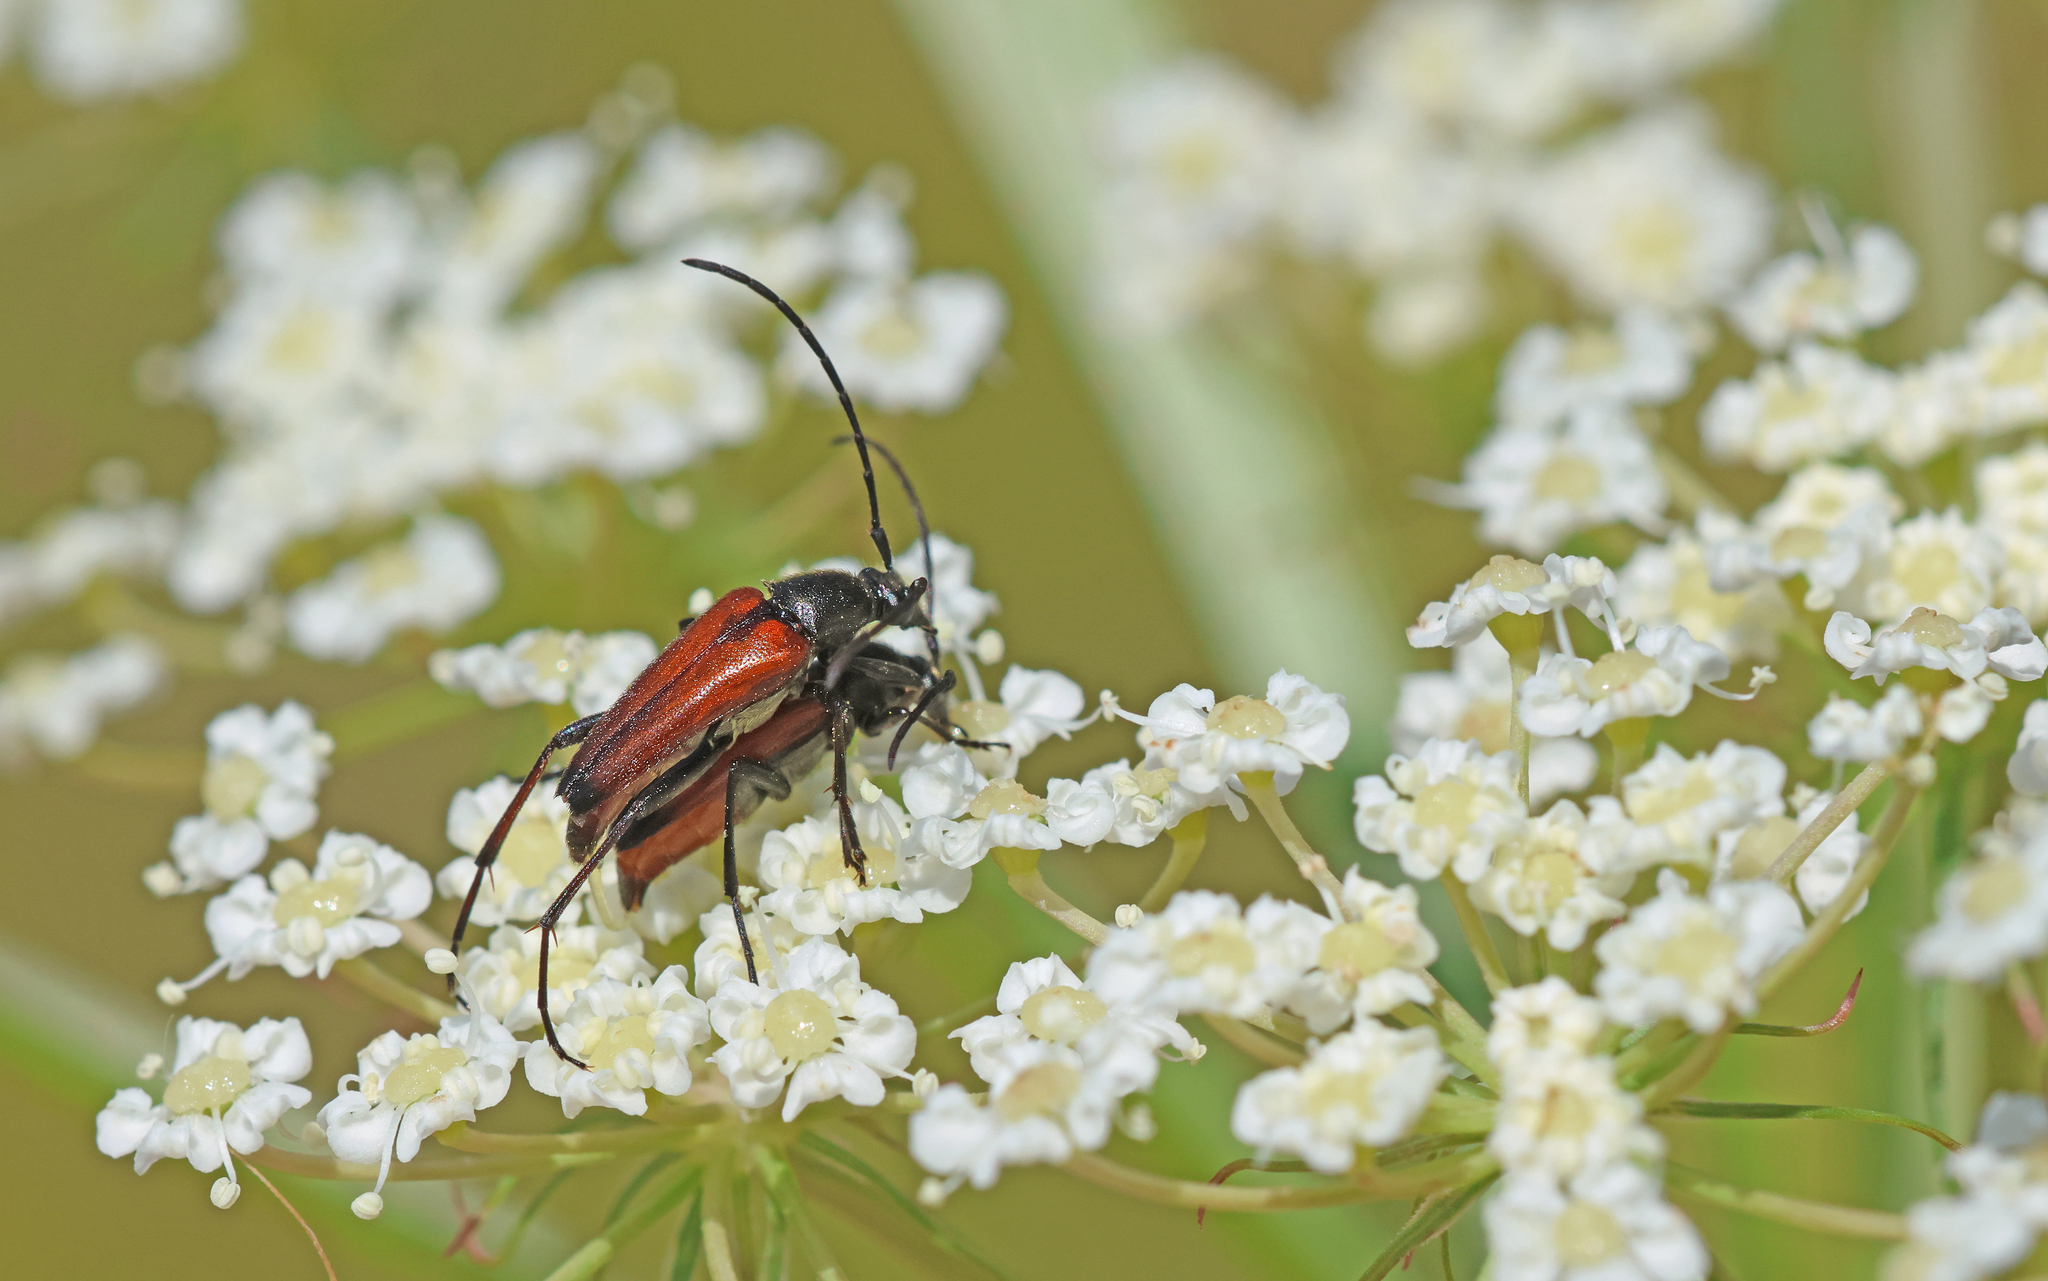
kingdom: Animalia
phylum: Arthropoda
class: Insecta
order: Coleoptera
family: Cerambycidae
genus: Stenurella
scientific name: Stenurella bifasciata
